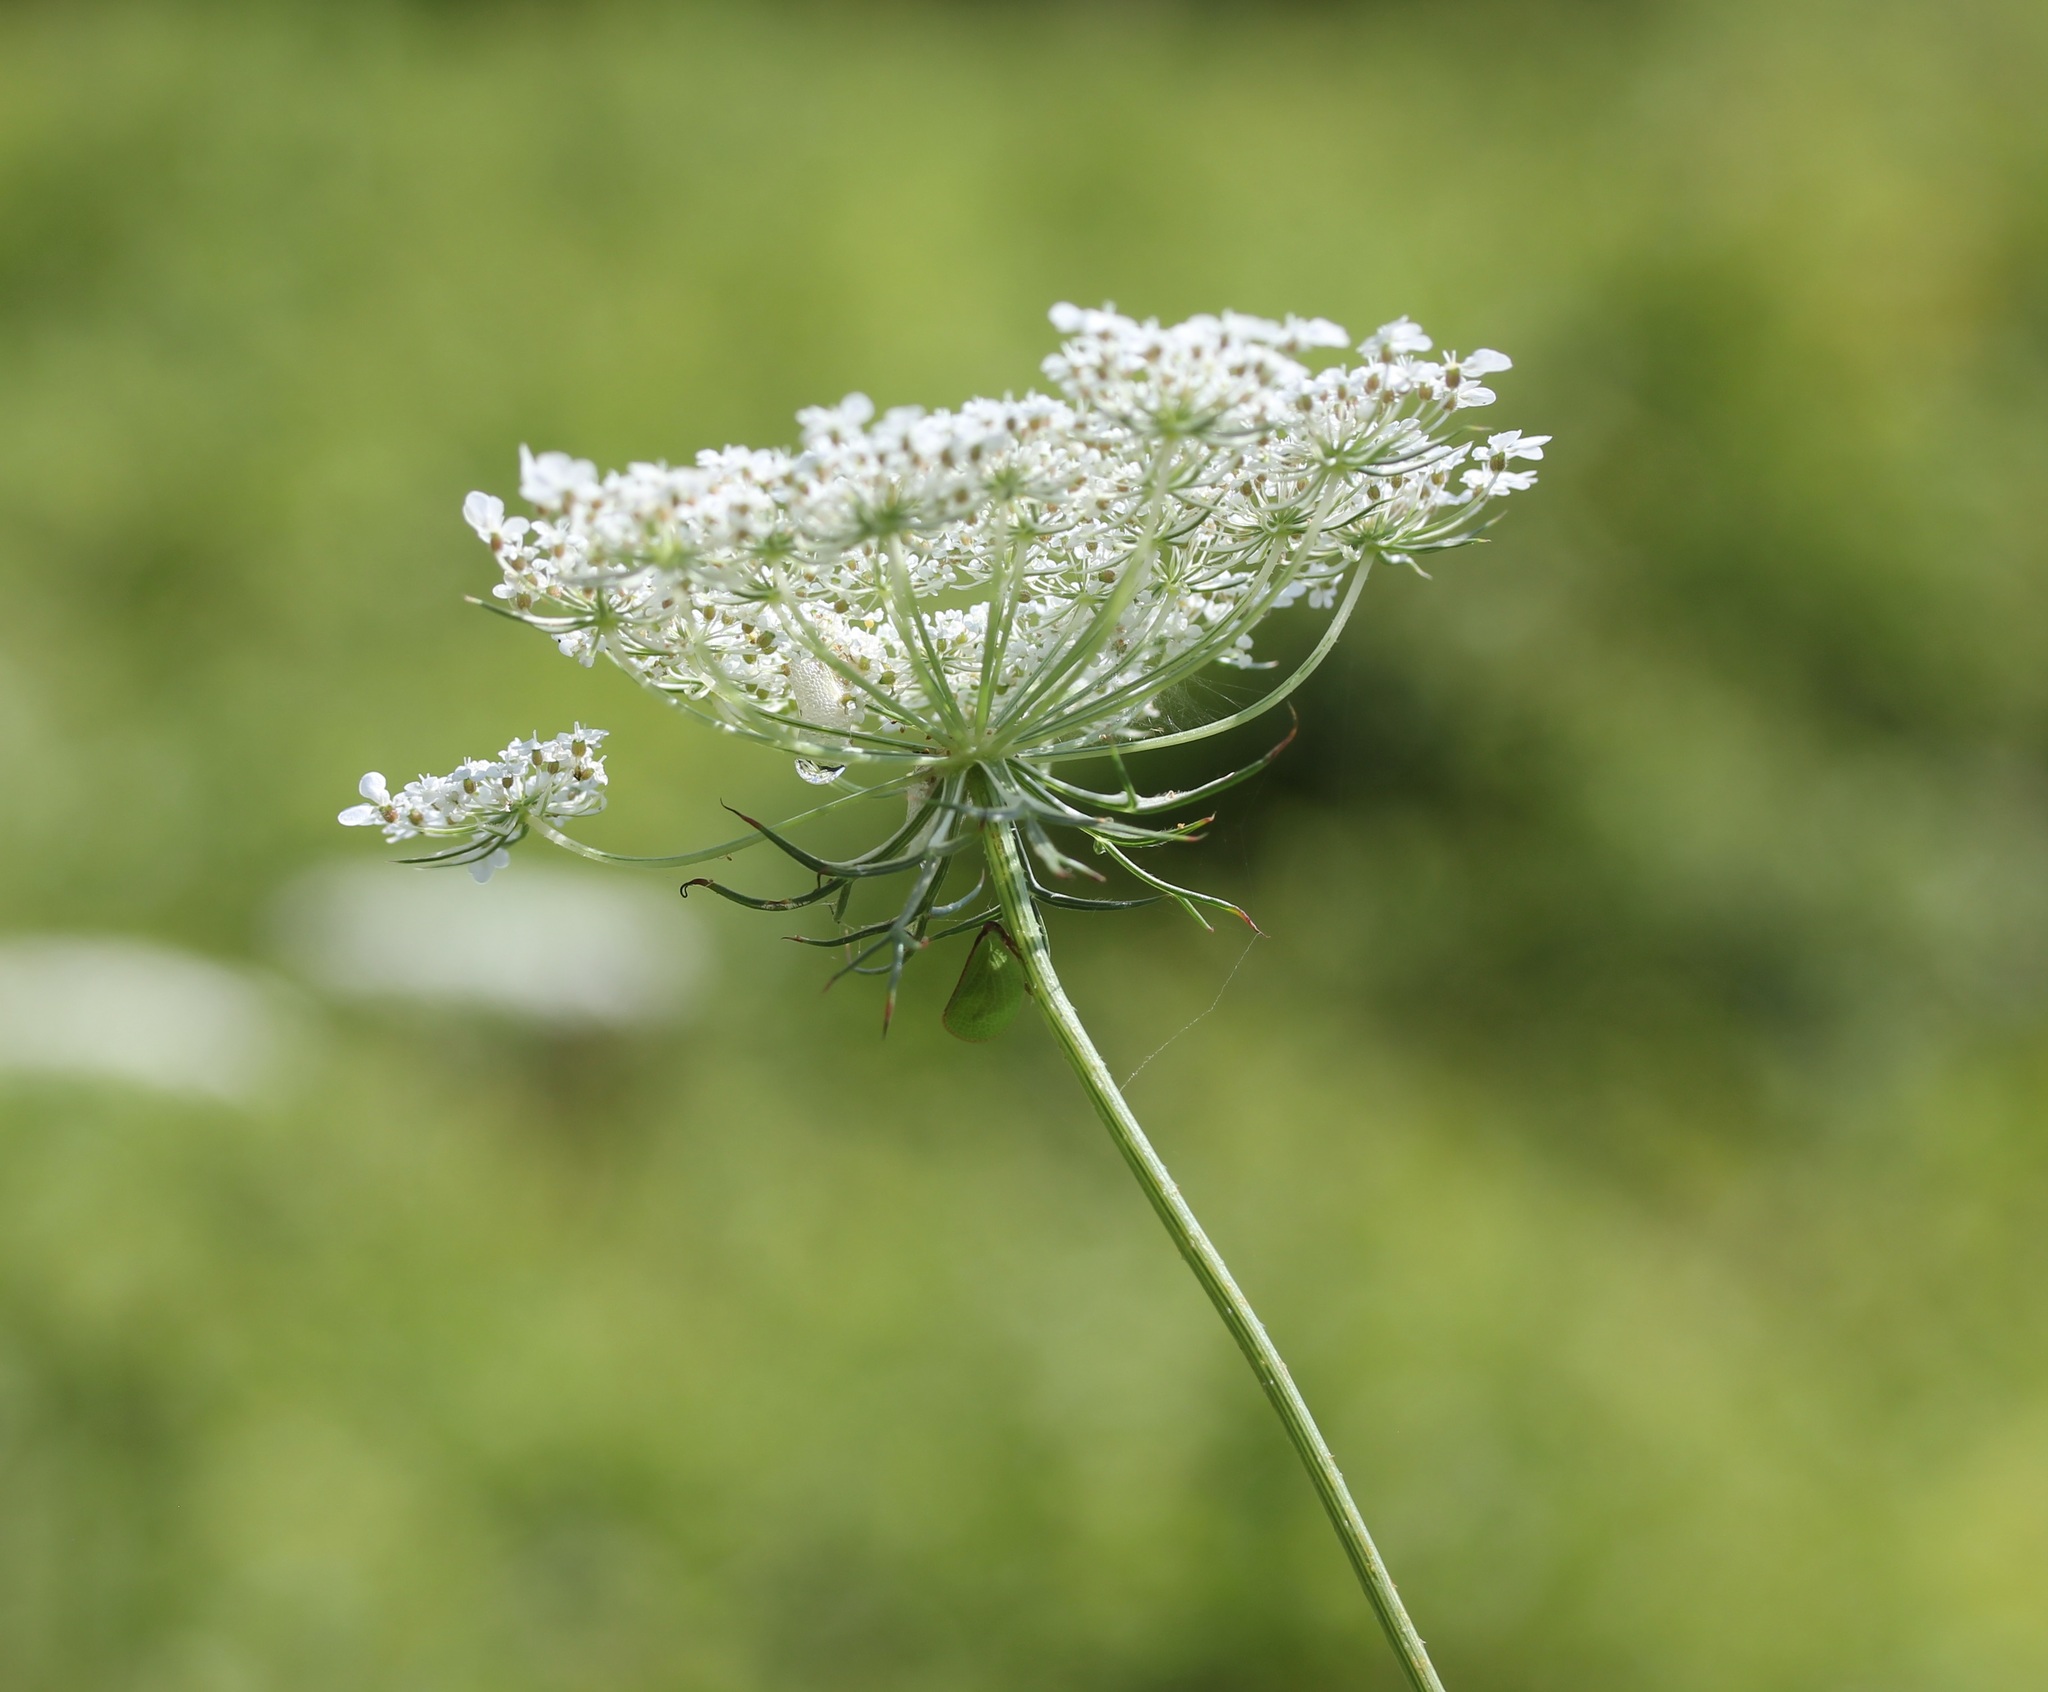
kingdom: Plantae
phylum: Tracheophyta
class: Magnoliopsida
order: Apiales
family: Apiaceae
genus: Daucus
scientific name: Daucus carota
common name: Wild carrot
